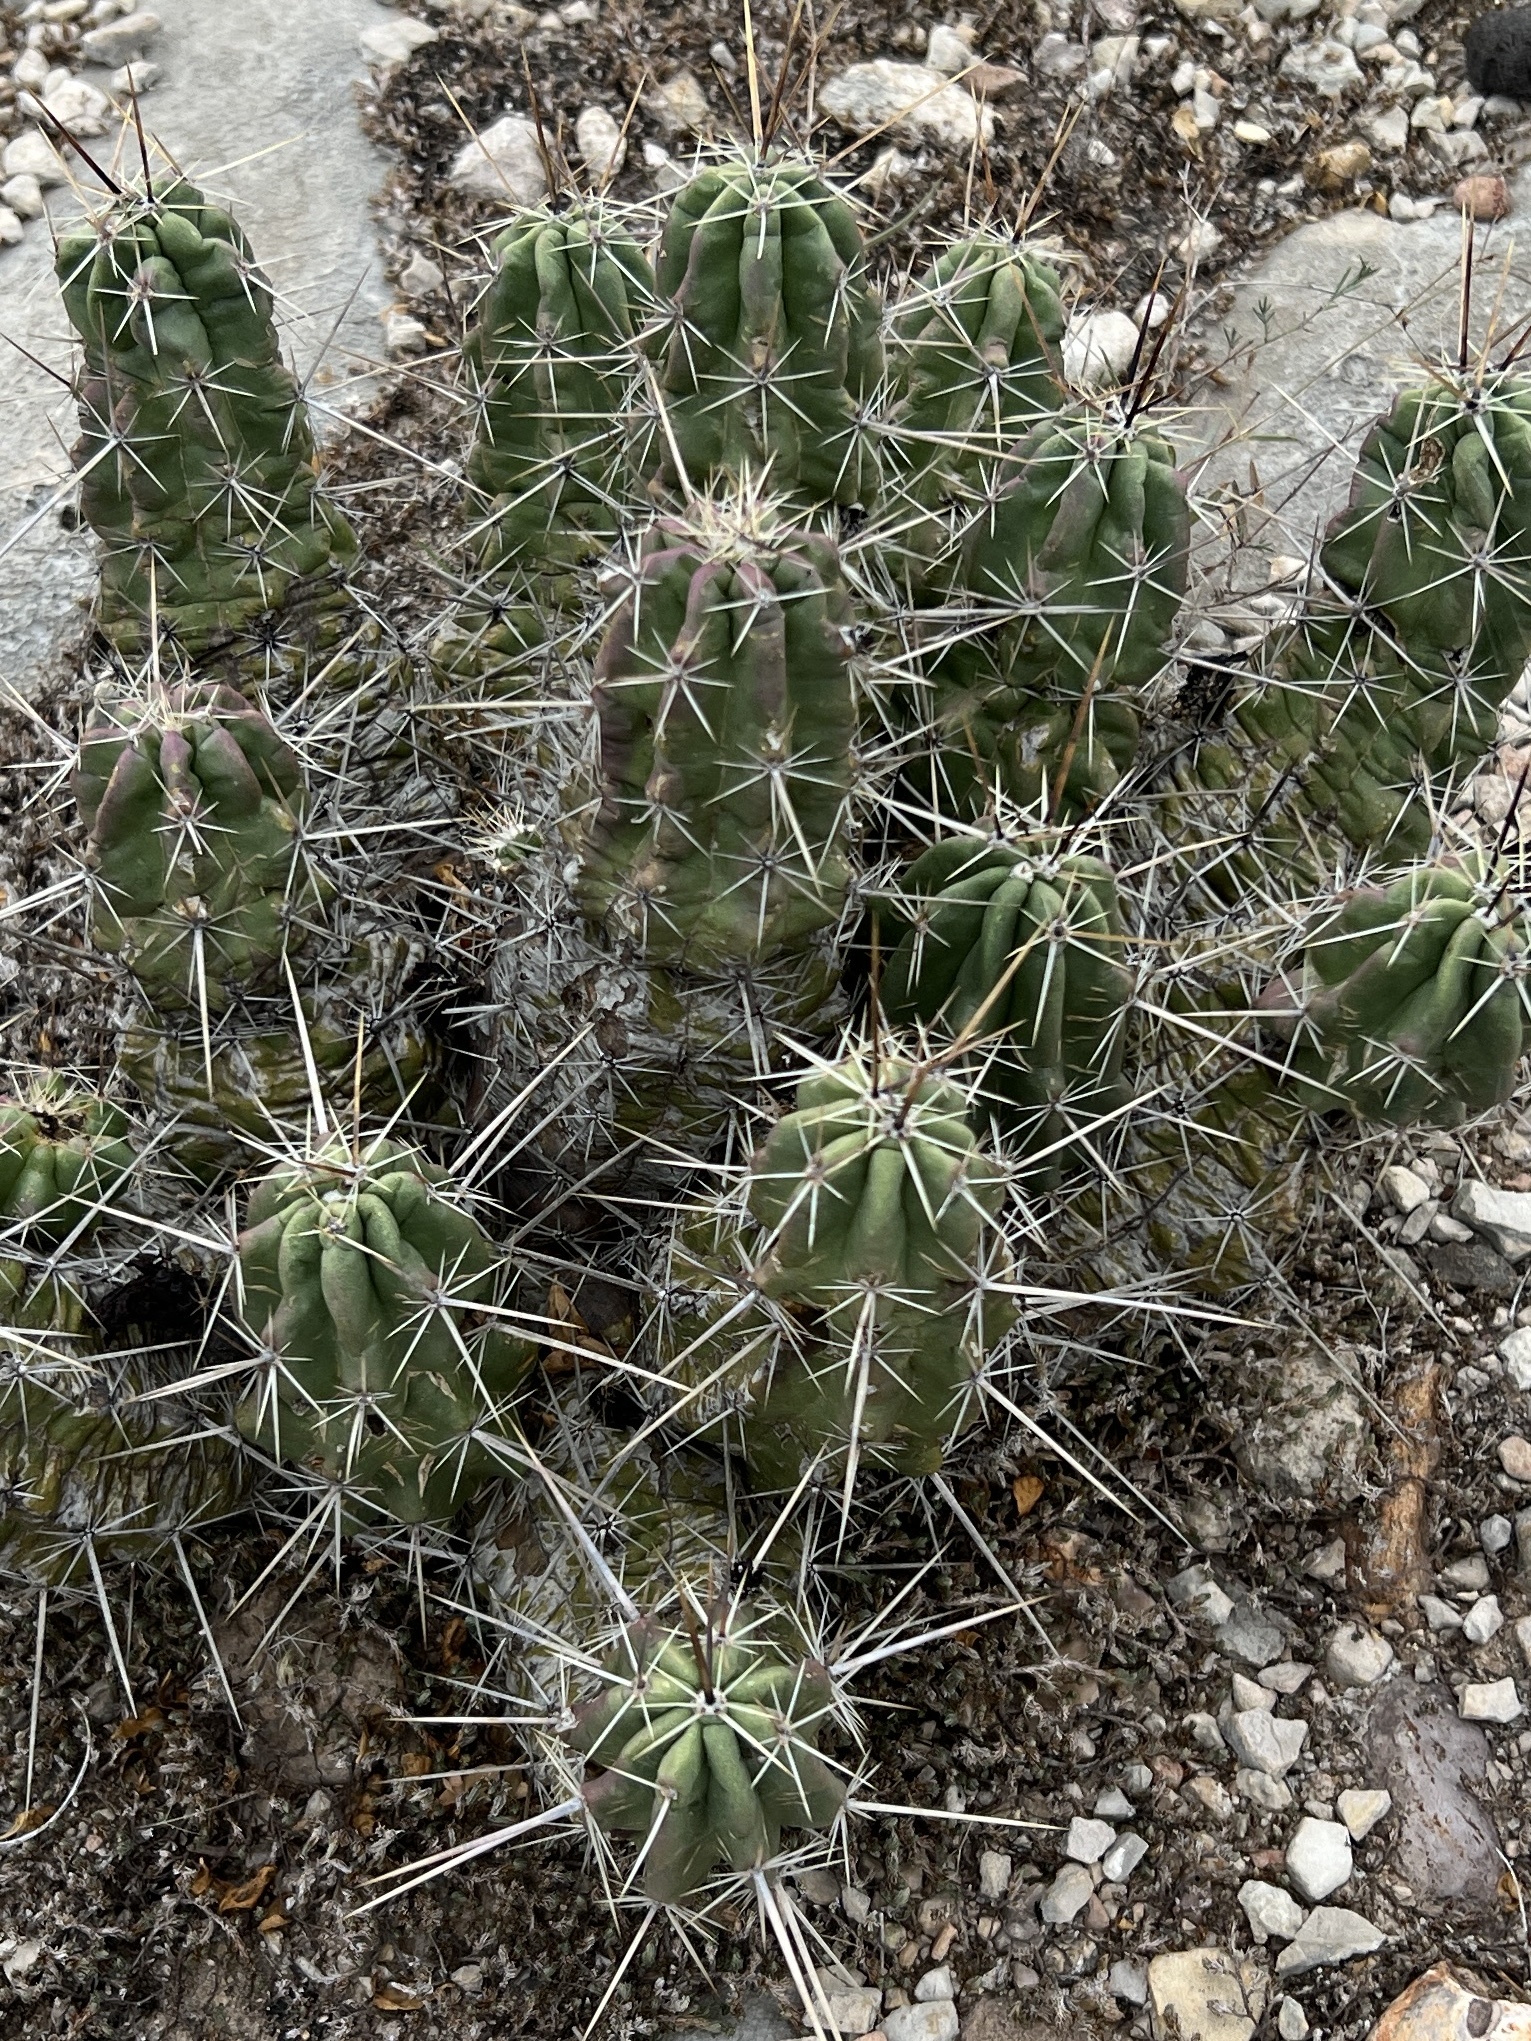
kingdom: Plantae
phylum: Tracheophyta
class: Magnoliopsida
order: Caryophyllales
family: Cactaceae
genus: Echinocereus
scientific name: Echinocereus enneacanthus
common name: Pitaya
